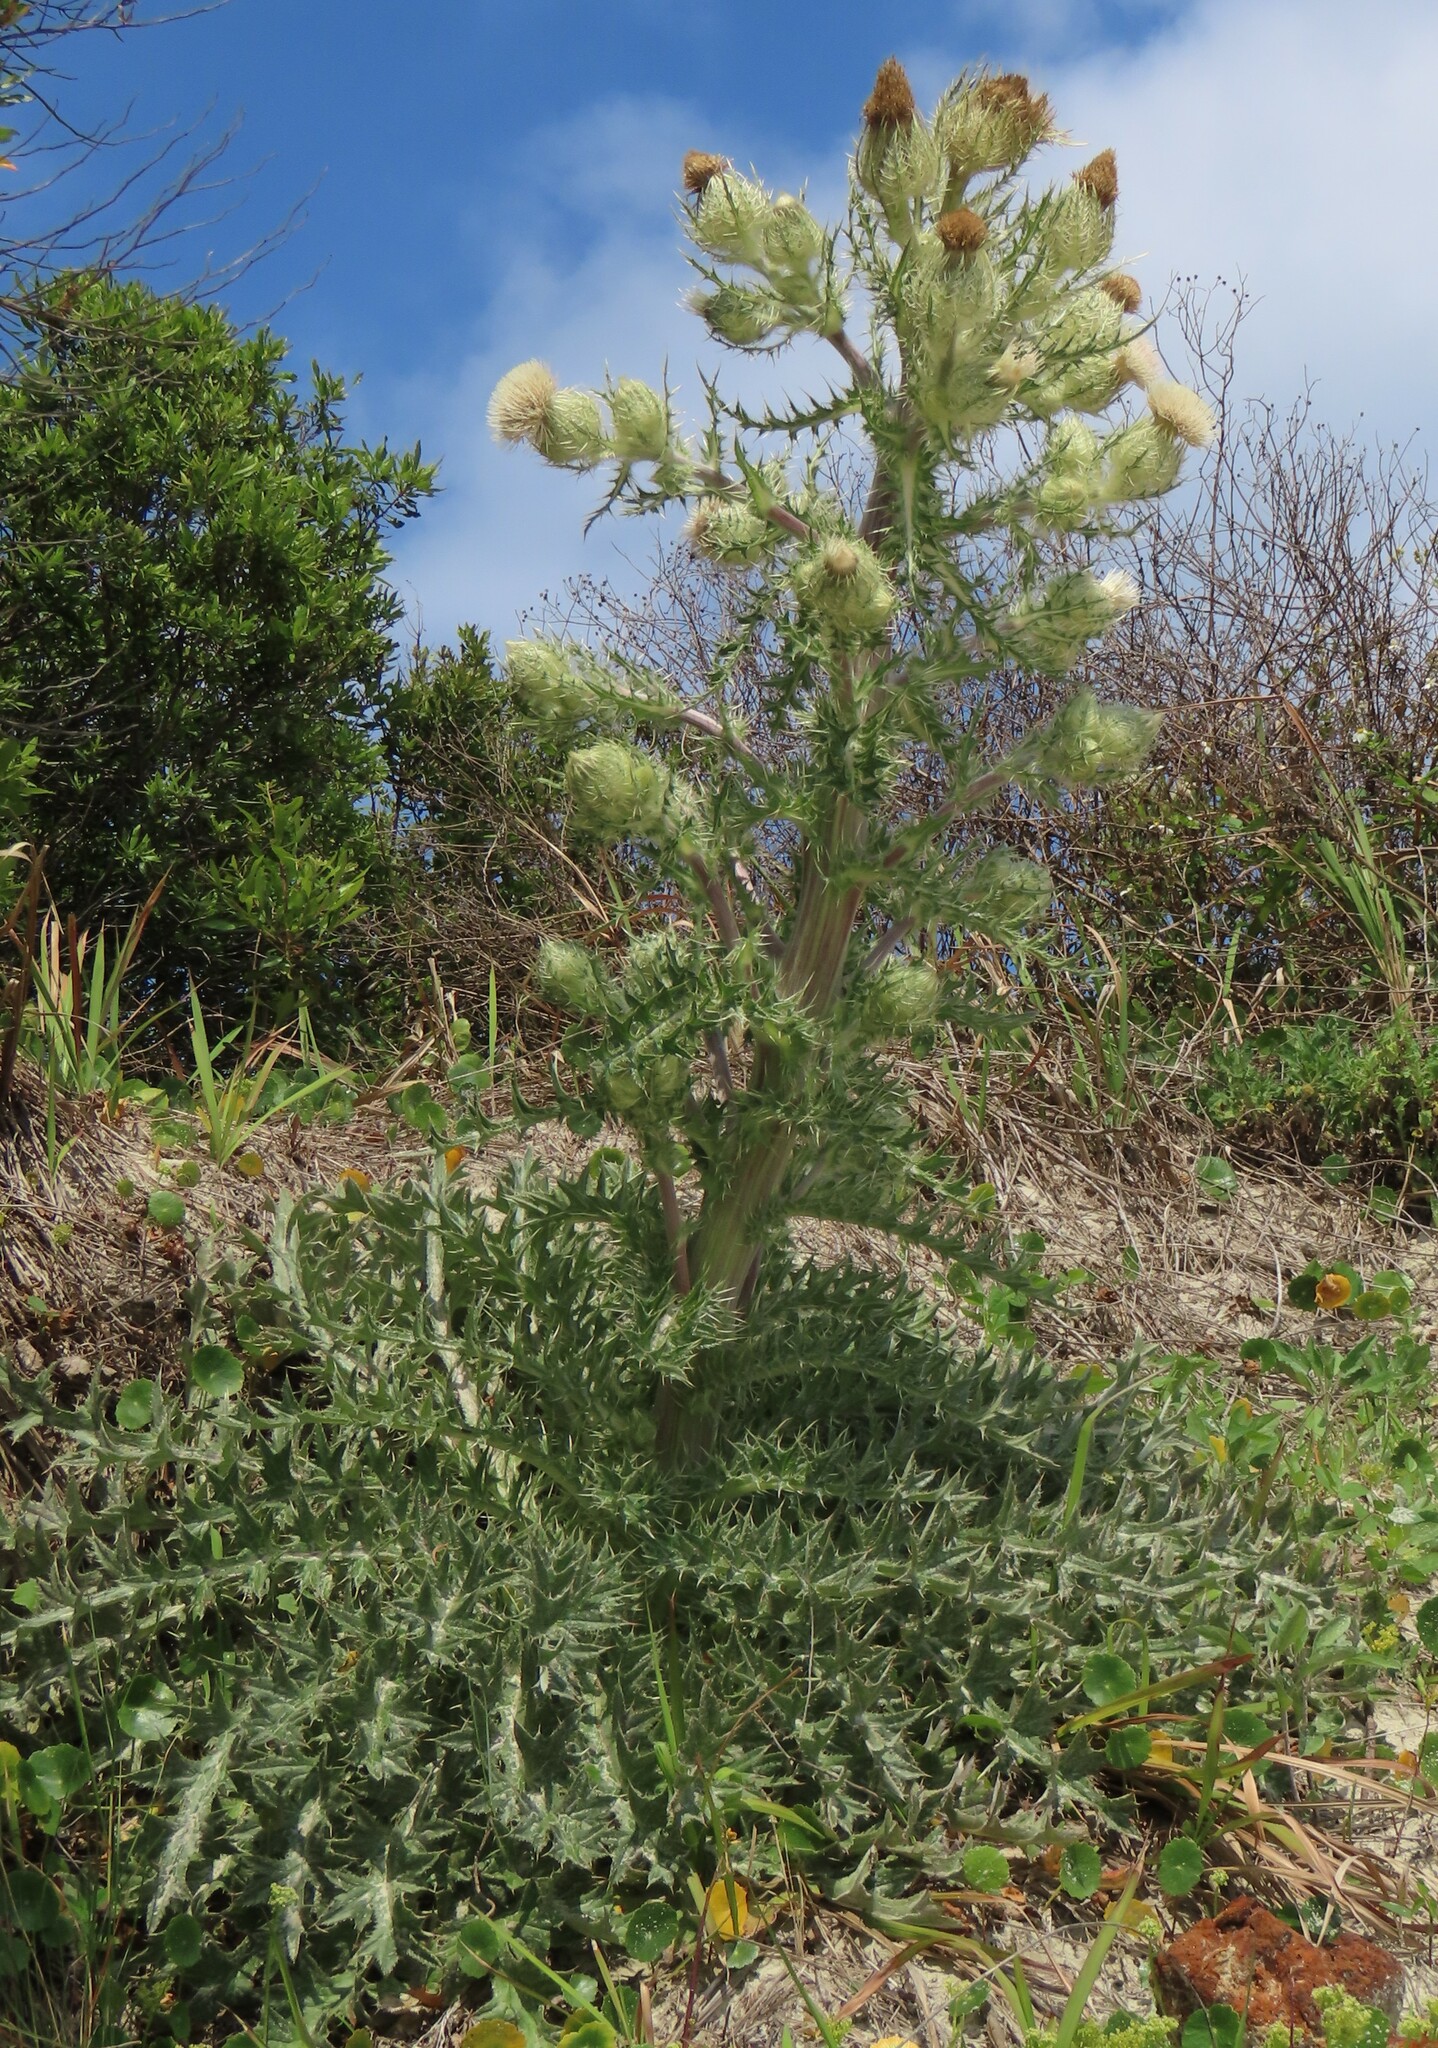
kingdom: Plantae
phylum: Tracheophyta
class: Magnoliopsida
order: Asterales
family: Asteraceae
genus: Cirsium
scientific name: Cirsium horridulum
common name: Bristly thistle
